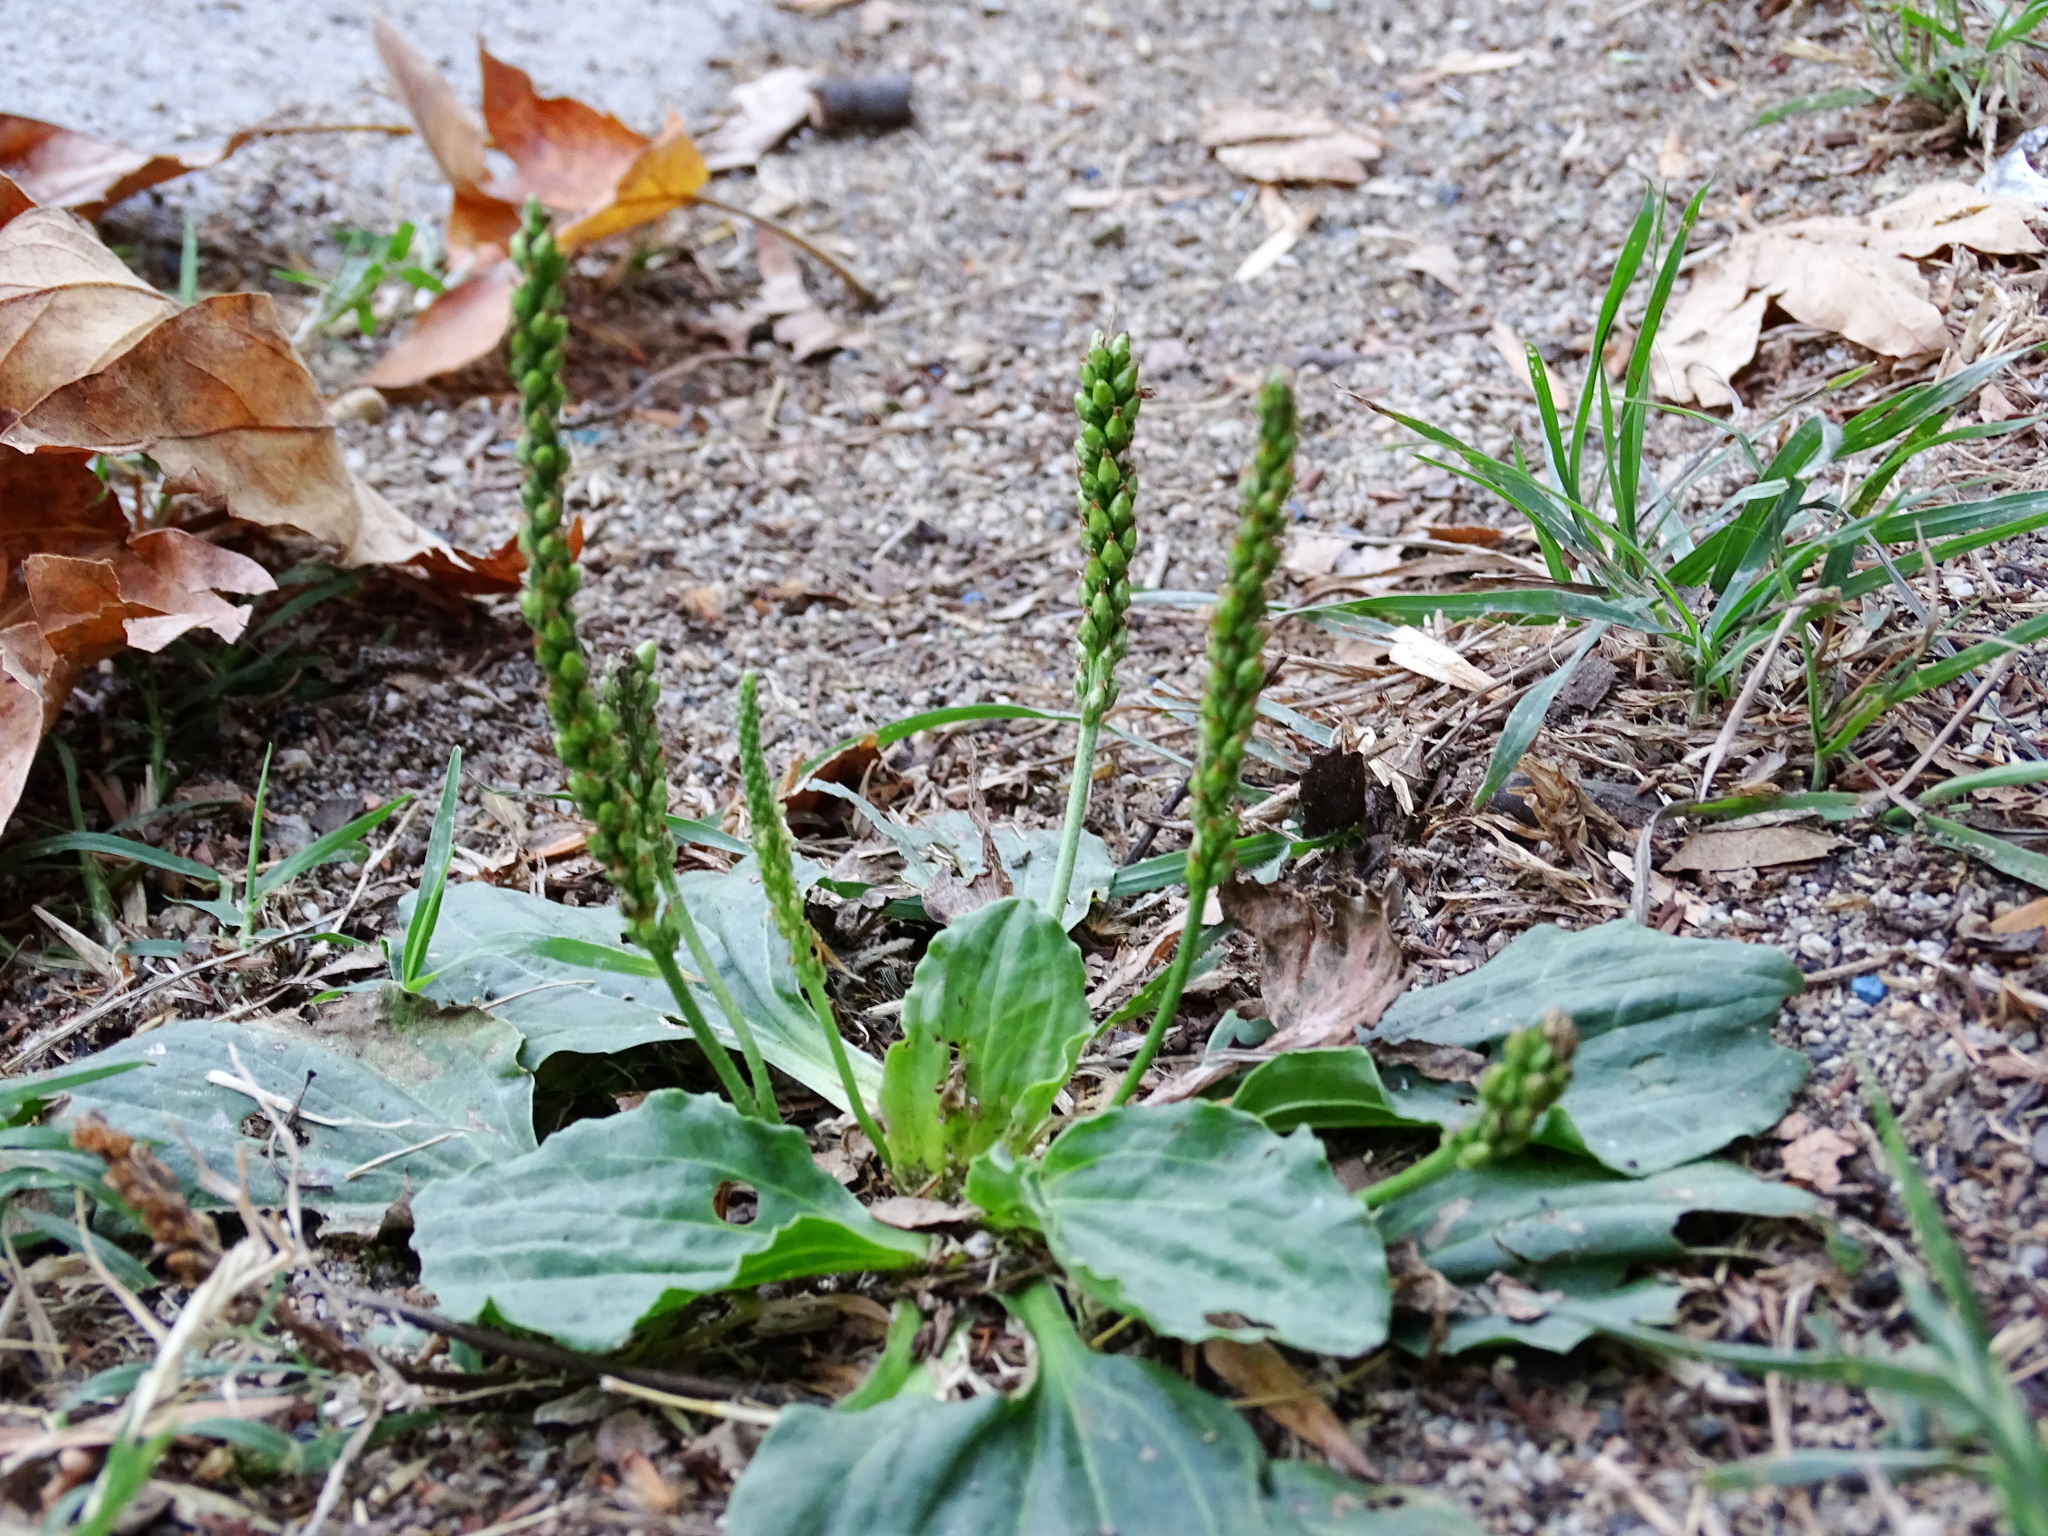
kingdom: Plantae
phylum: Tracheophyta
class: Magnoliopsida
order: Lamiales
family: Plantaginaceae
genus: Plantago
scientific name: Plantago major
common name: Common plantain
